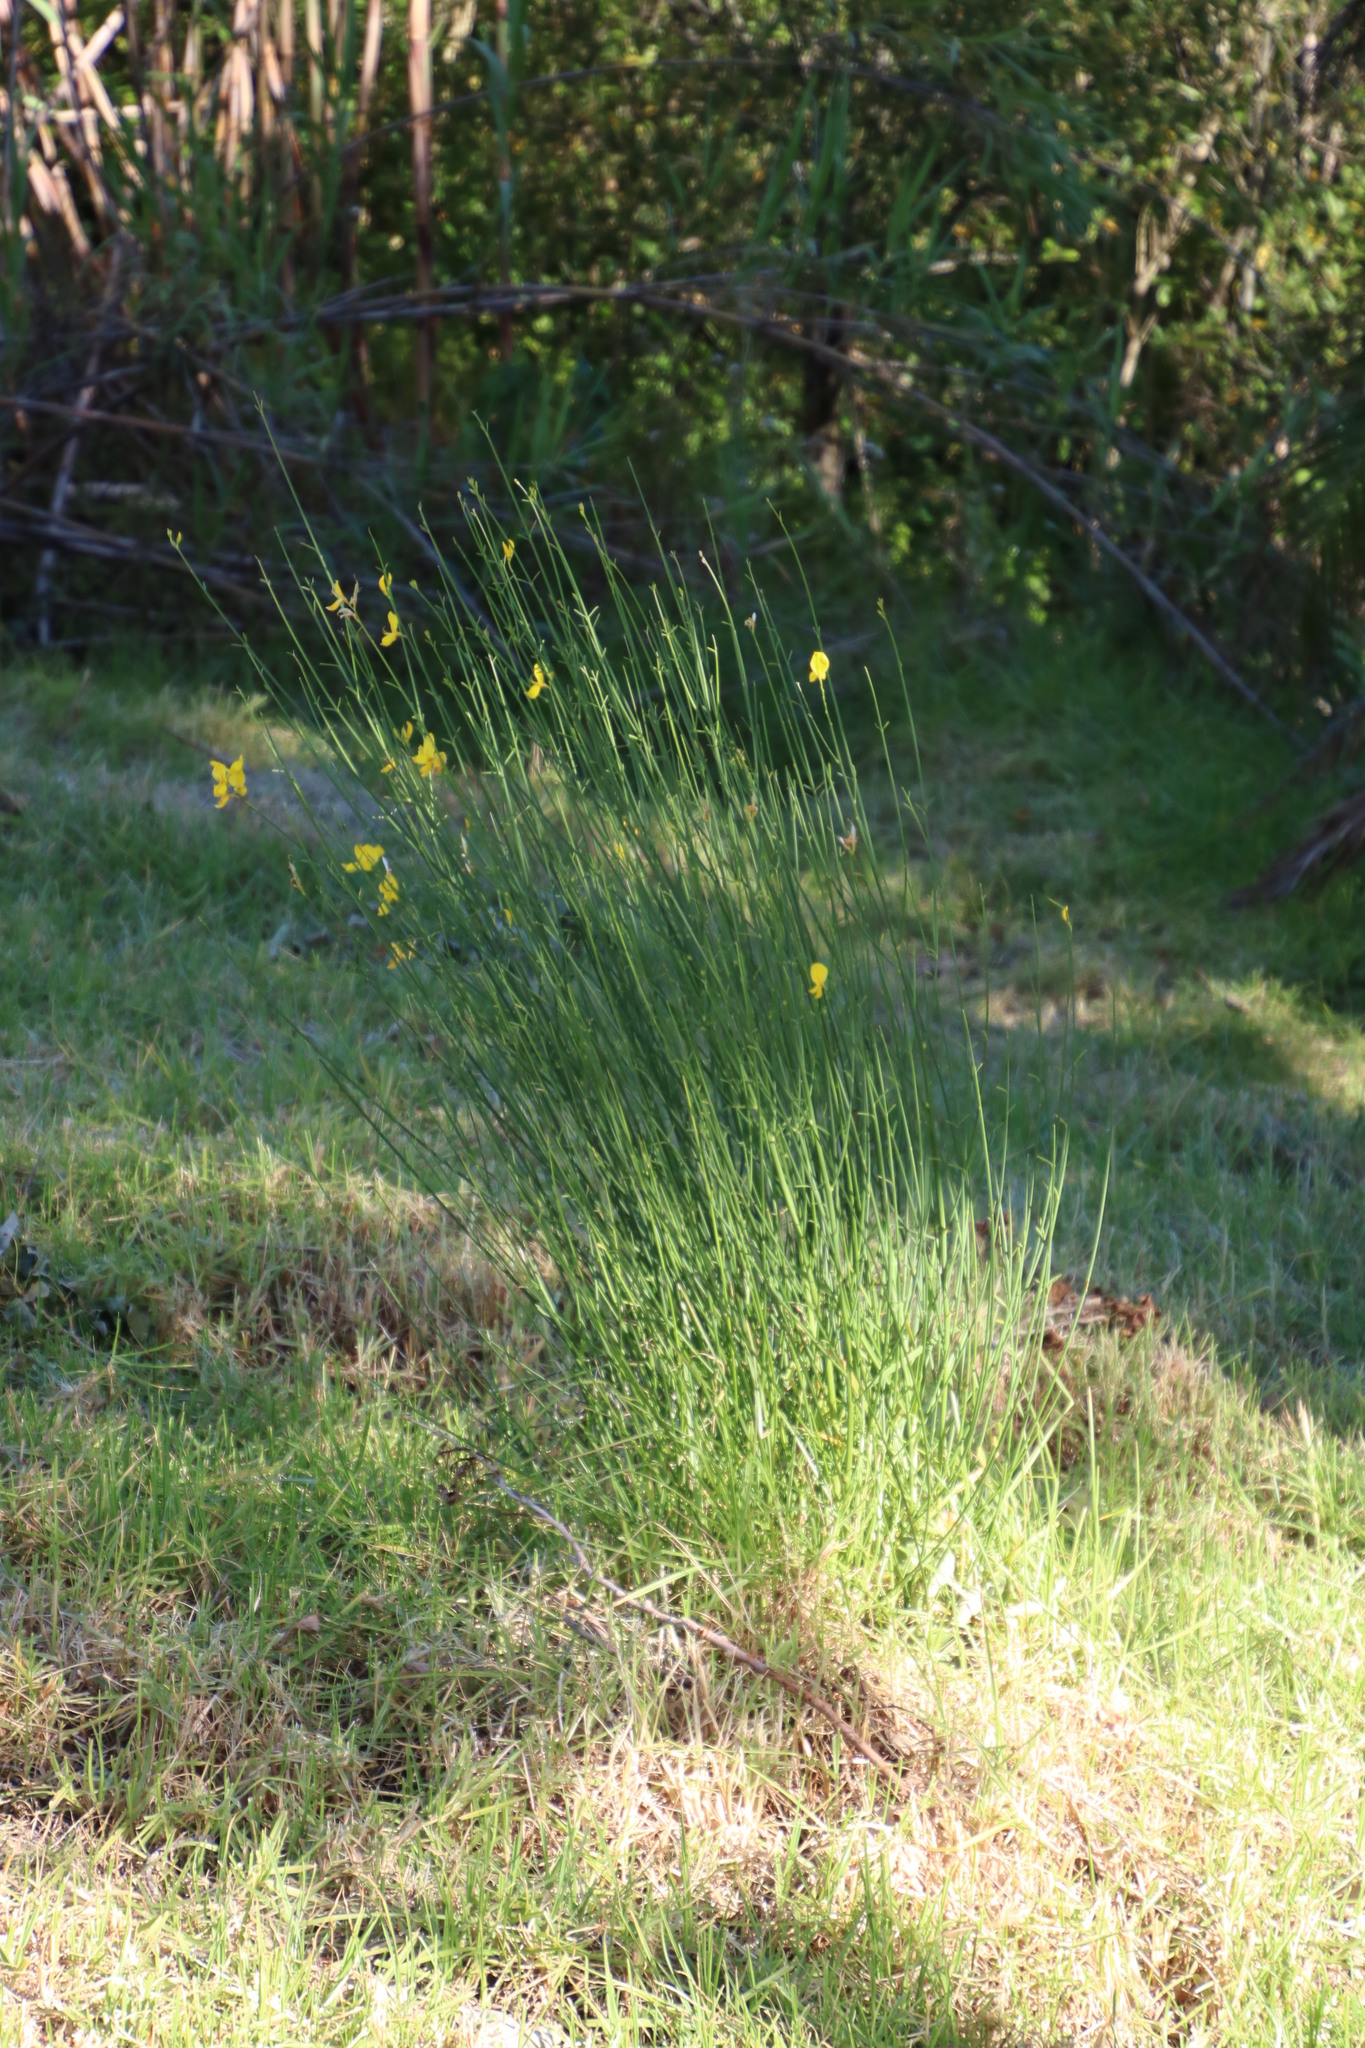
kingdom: Plantae
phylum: Tracheophyta
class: Magnoliopsida
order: Fabales
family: Fabaceae
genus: Spartium
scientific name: Spartium junceum
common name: Spanish broom
